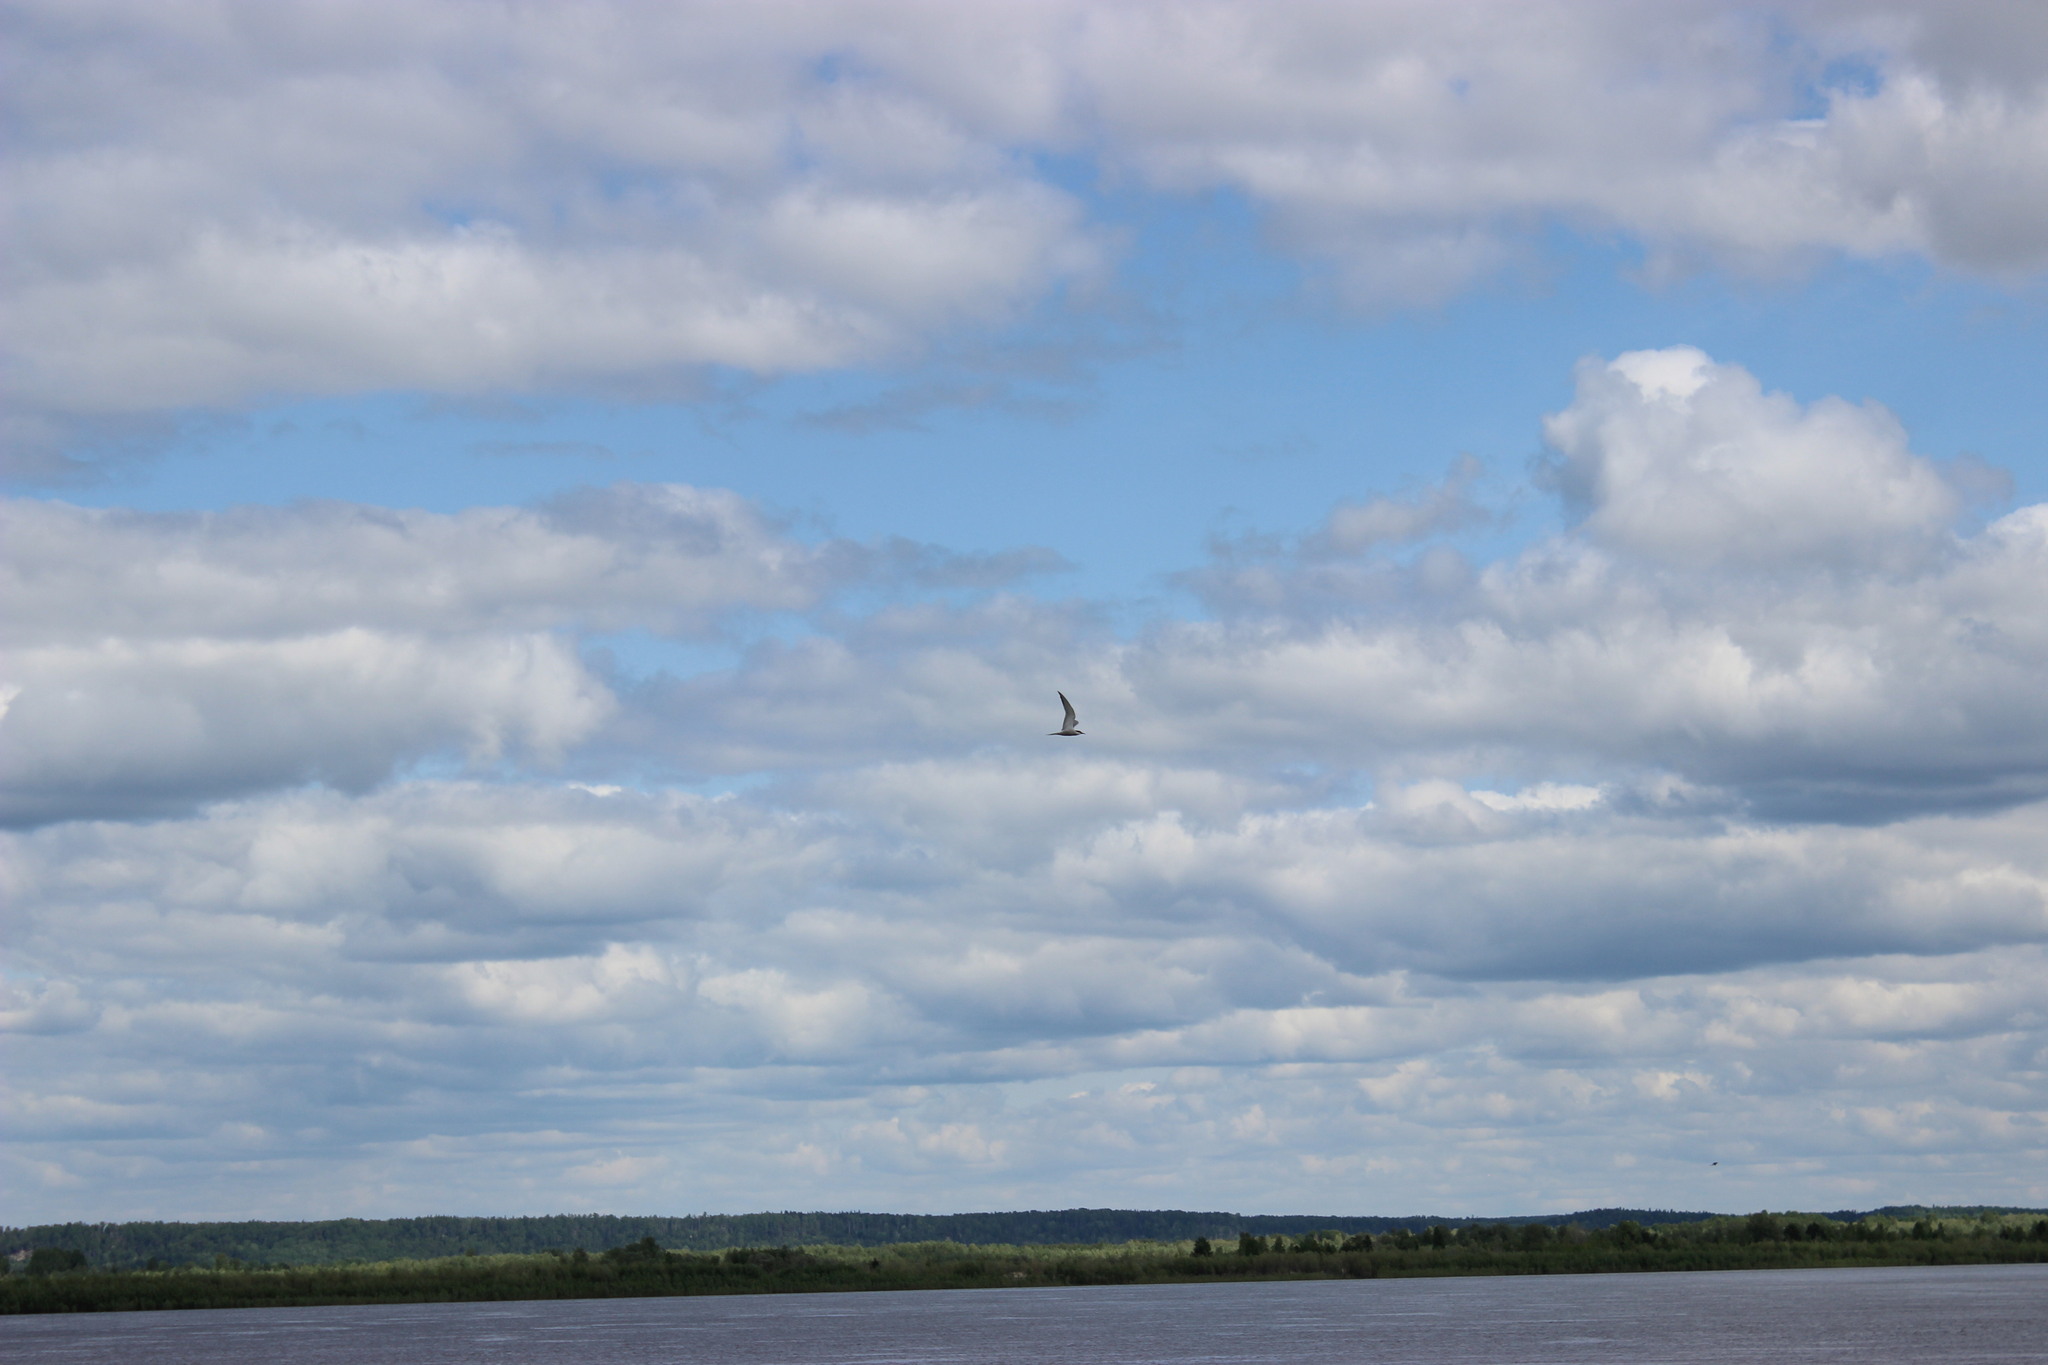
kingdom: Animalia
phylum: Chordata
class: Aves
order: Charadriiformes
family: Laridae
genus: Sterna
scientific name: Sterna hirundo
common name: Common tern
